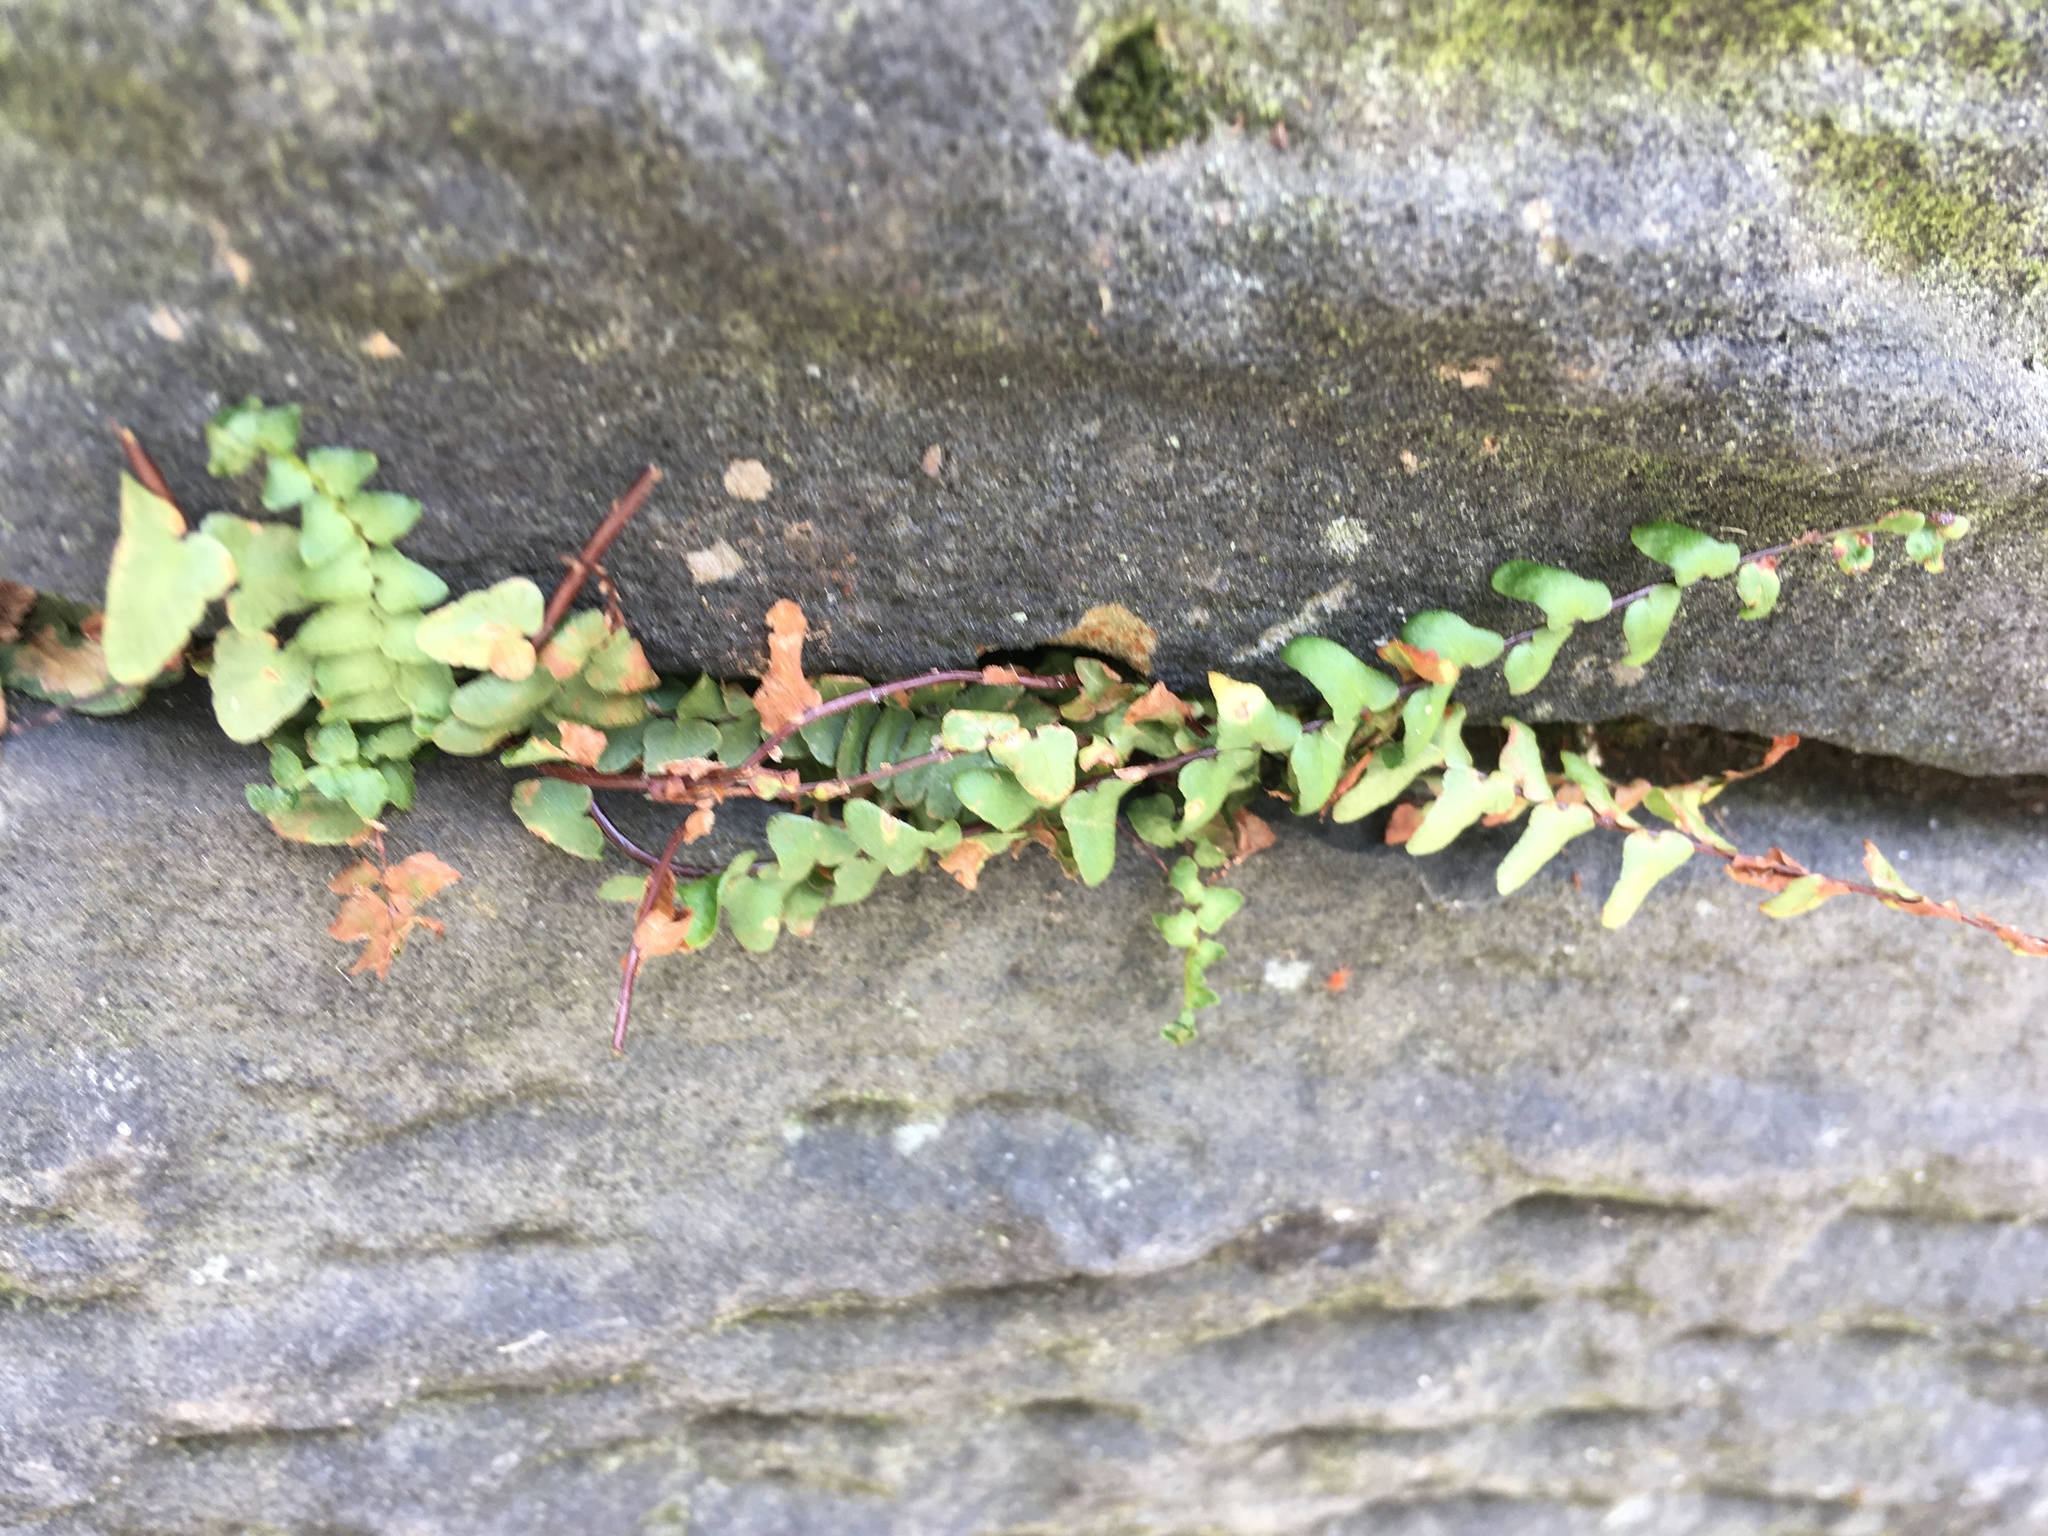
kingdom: Plantae
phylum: Tracheophyta
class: Polypodiopsida
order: Polypodiales
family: Aspleniaceae
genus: Asplenium
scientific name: Asplenium platyneuron
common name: Ebony spleenwort
